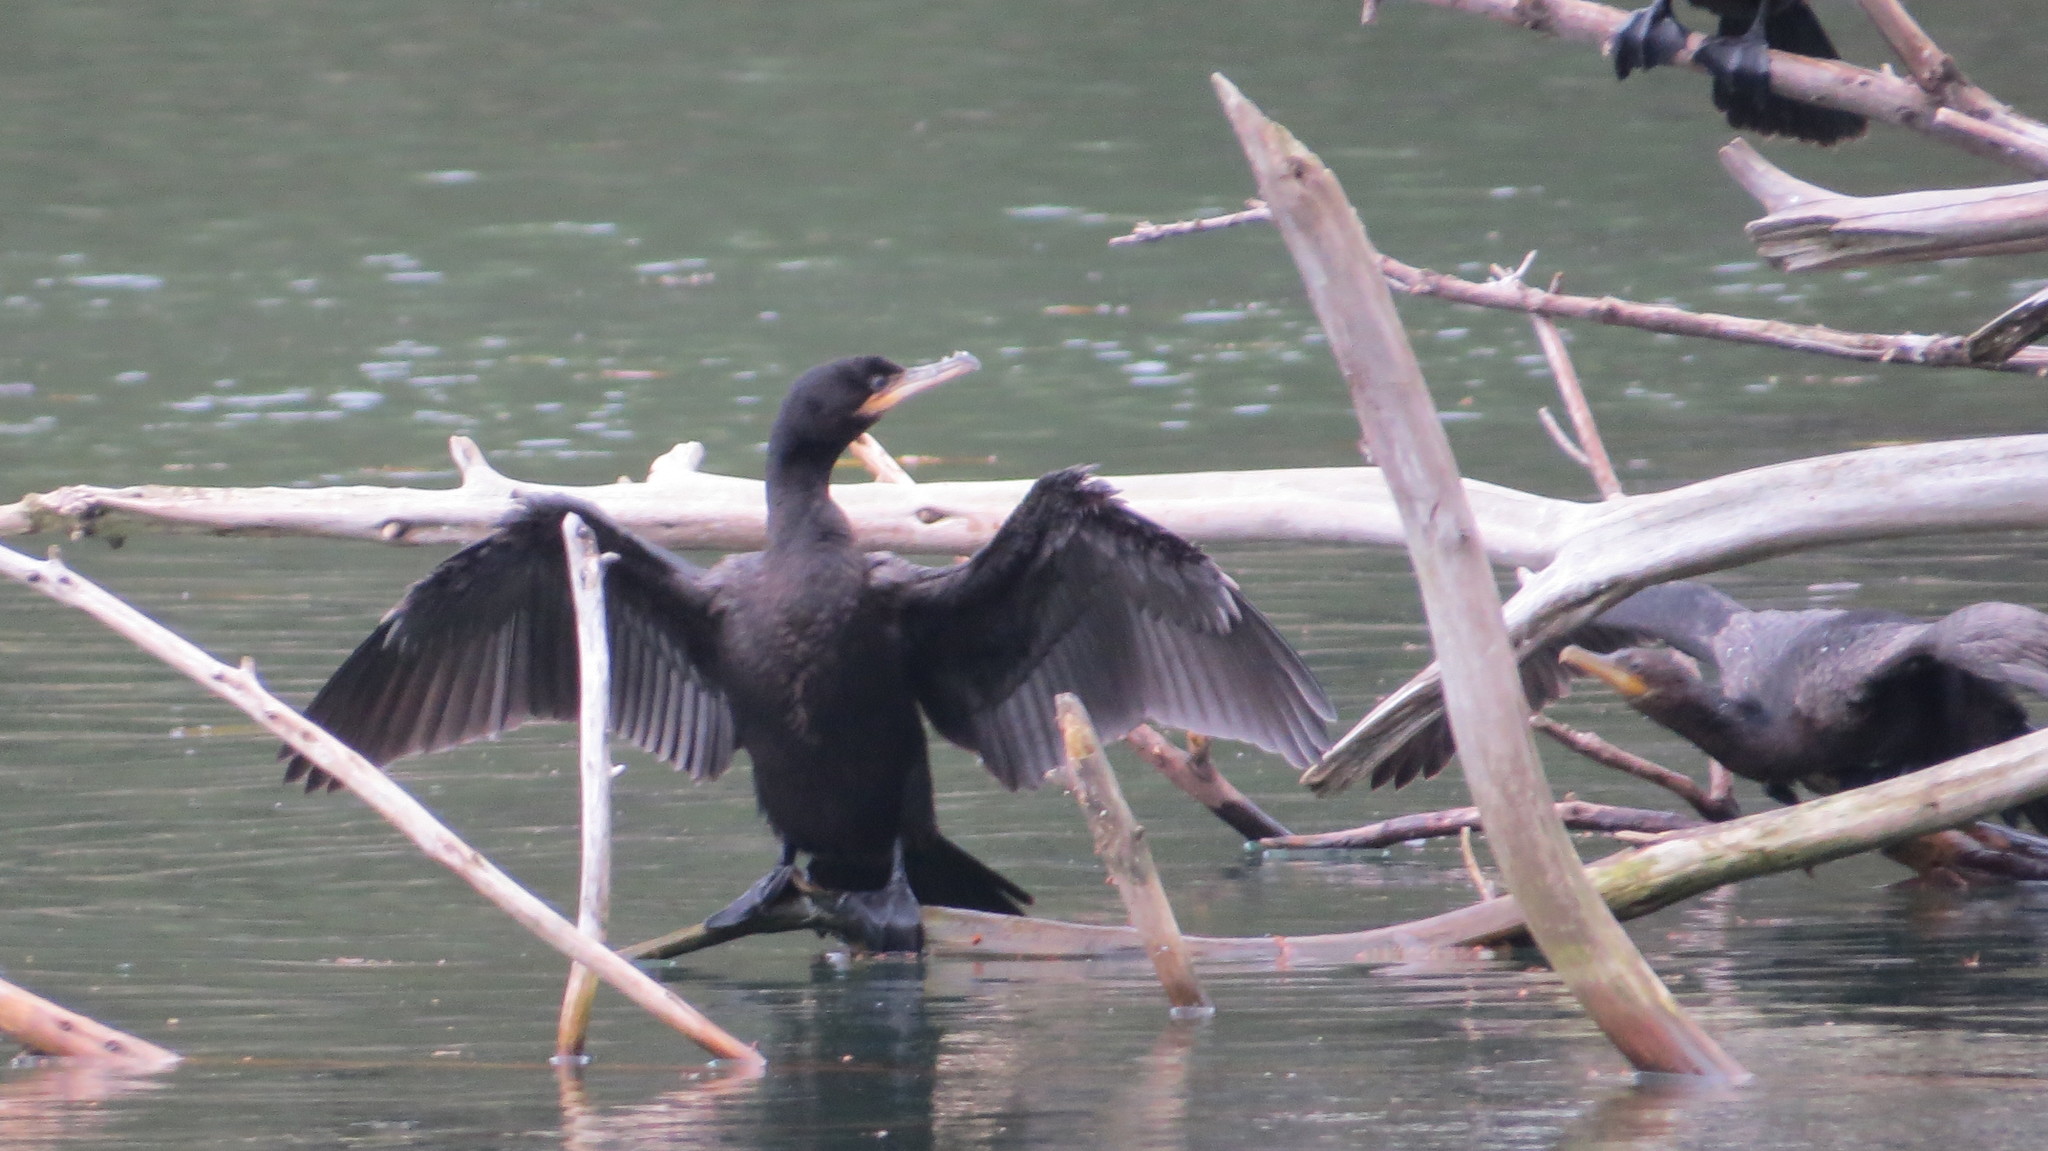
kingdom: Animalia
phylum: Chordata
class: Aves
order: Suliformes
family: Phalacrocoracidae
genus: Phalacrocorax
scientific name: Phalacrocorax brasilianus
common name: Neotropic cormorant
